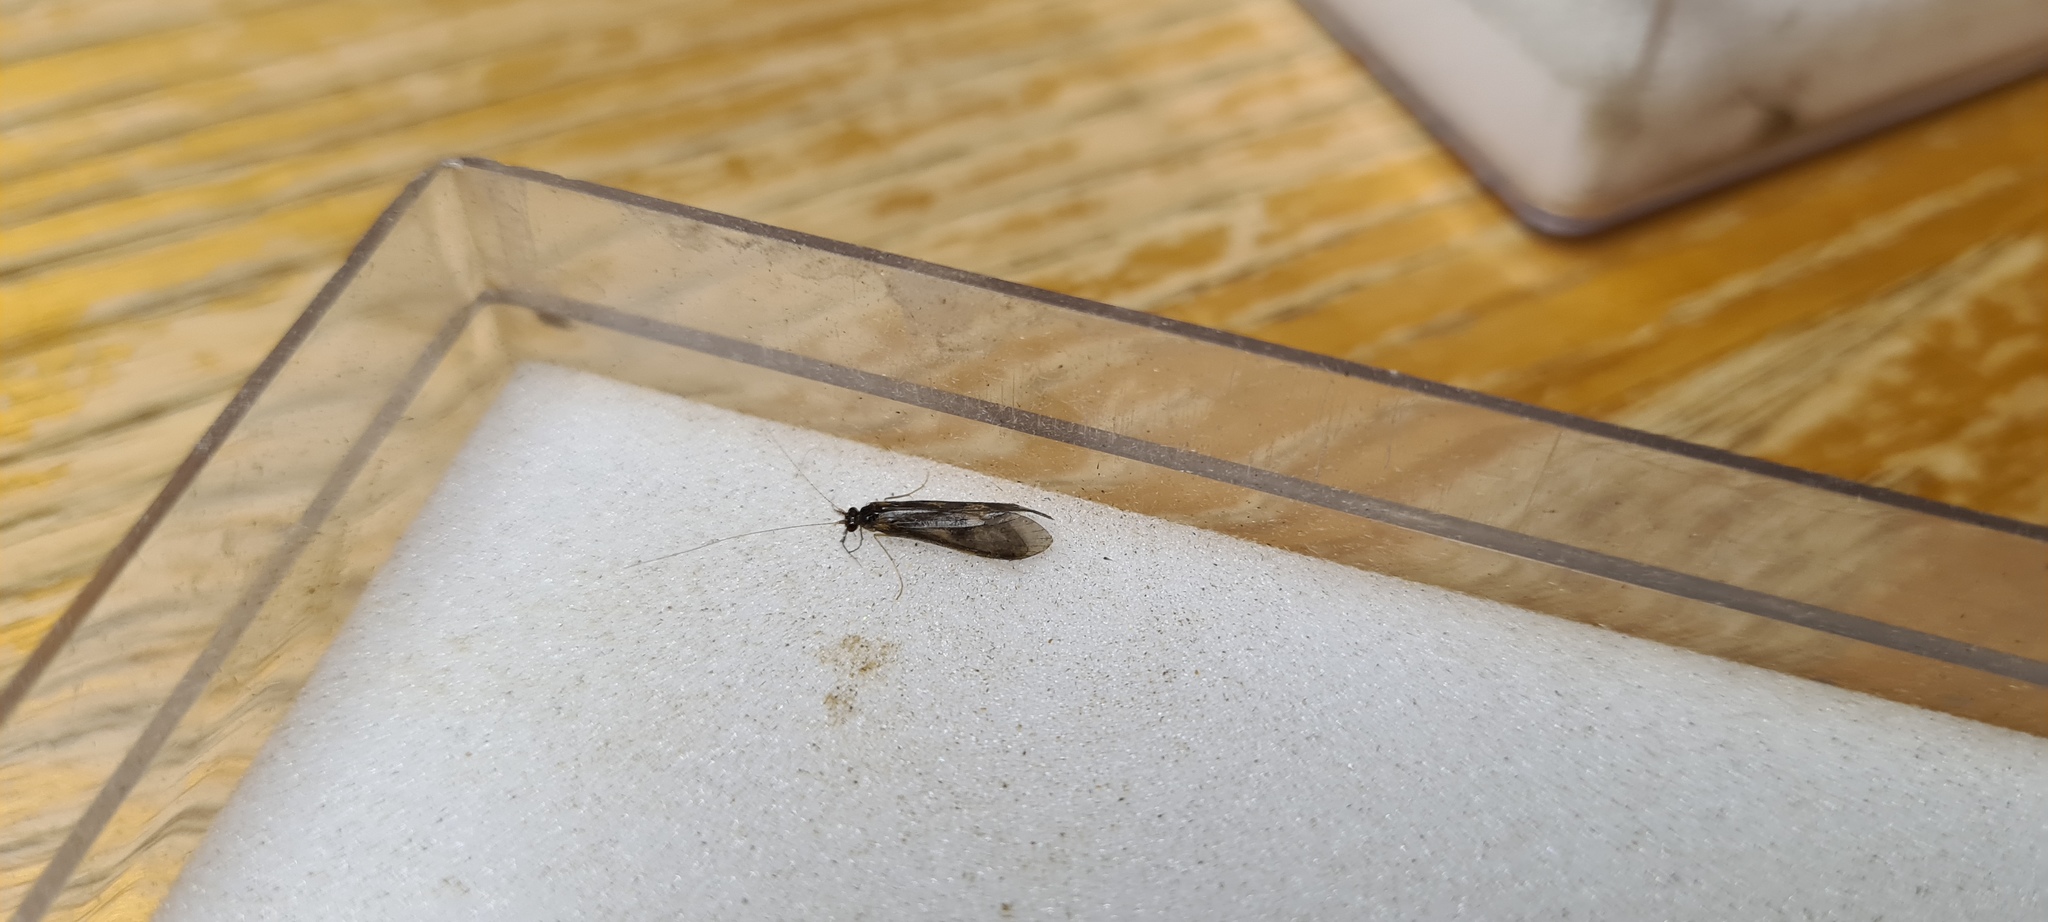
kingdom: Animalia
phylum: Arthropoda
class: Insecta
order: Trichoptera
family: Leptoceridae
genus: Mystacides
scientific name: Mystacides longicornis
